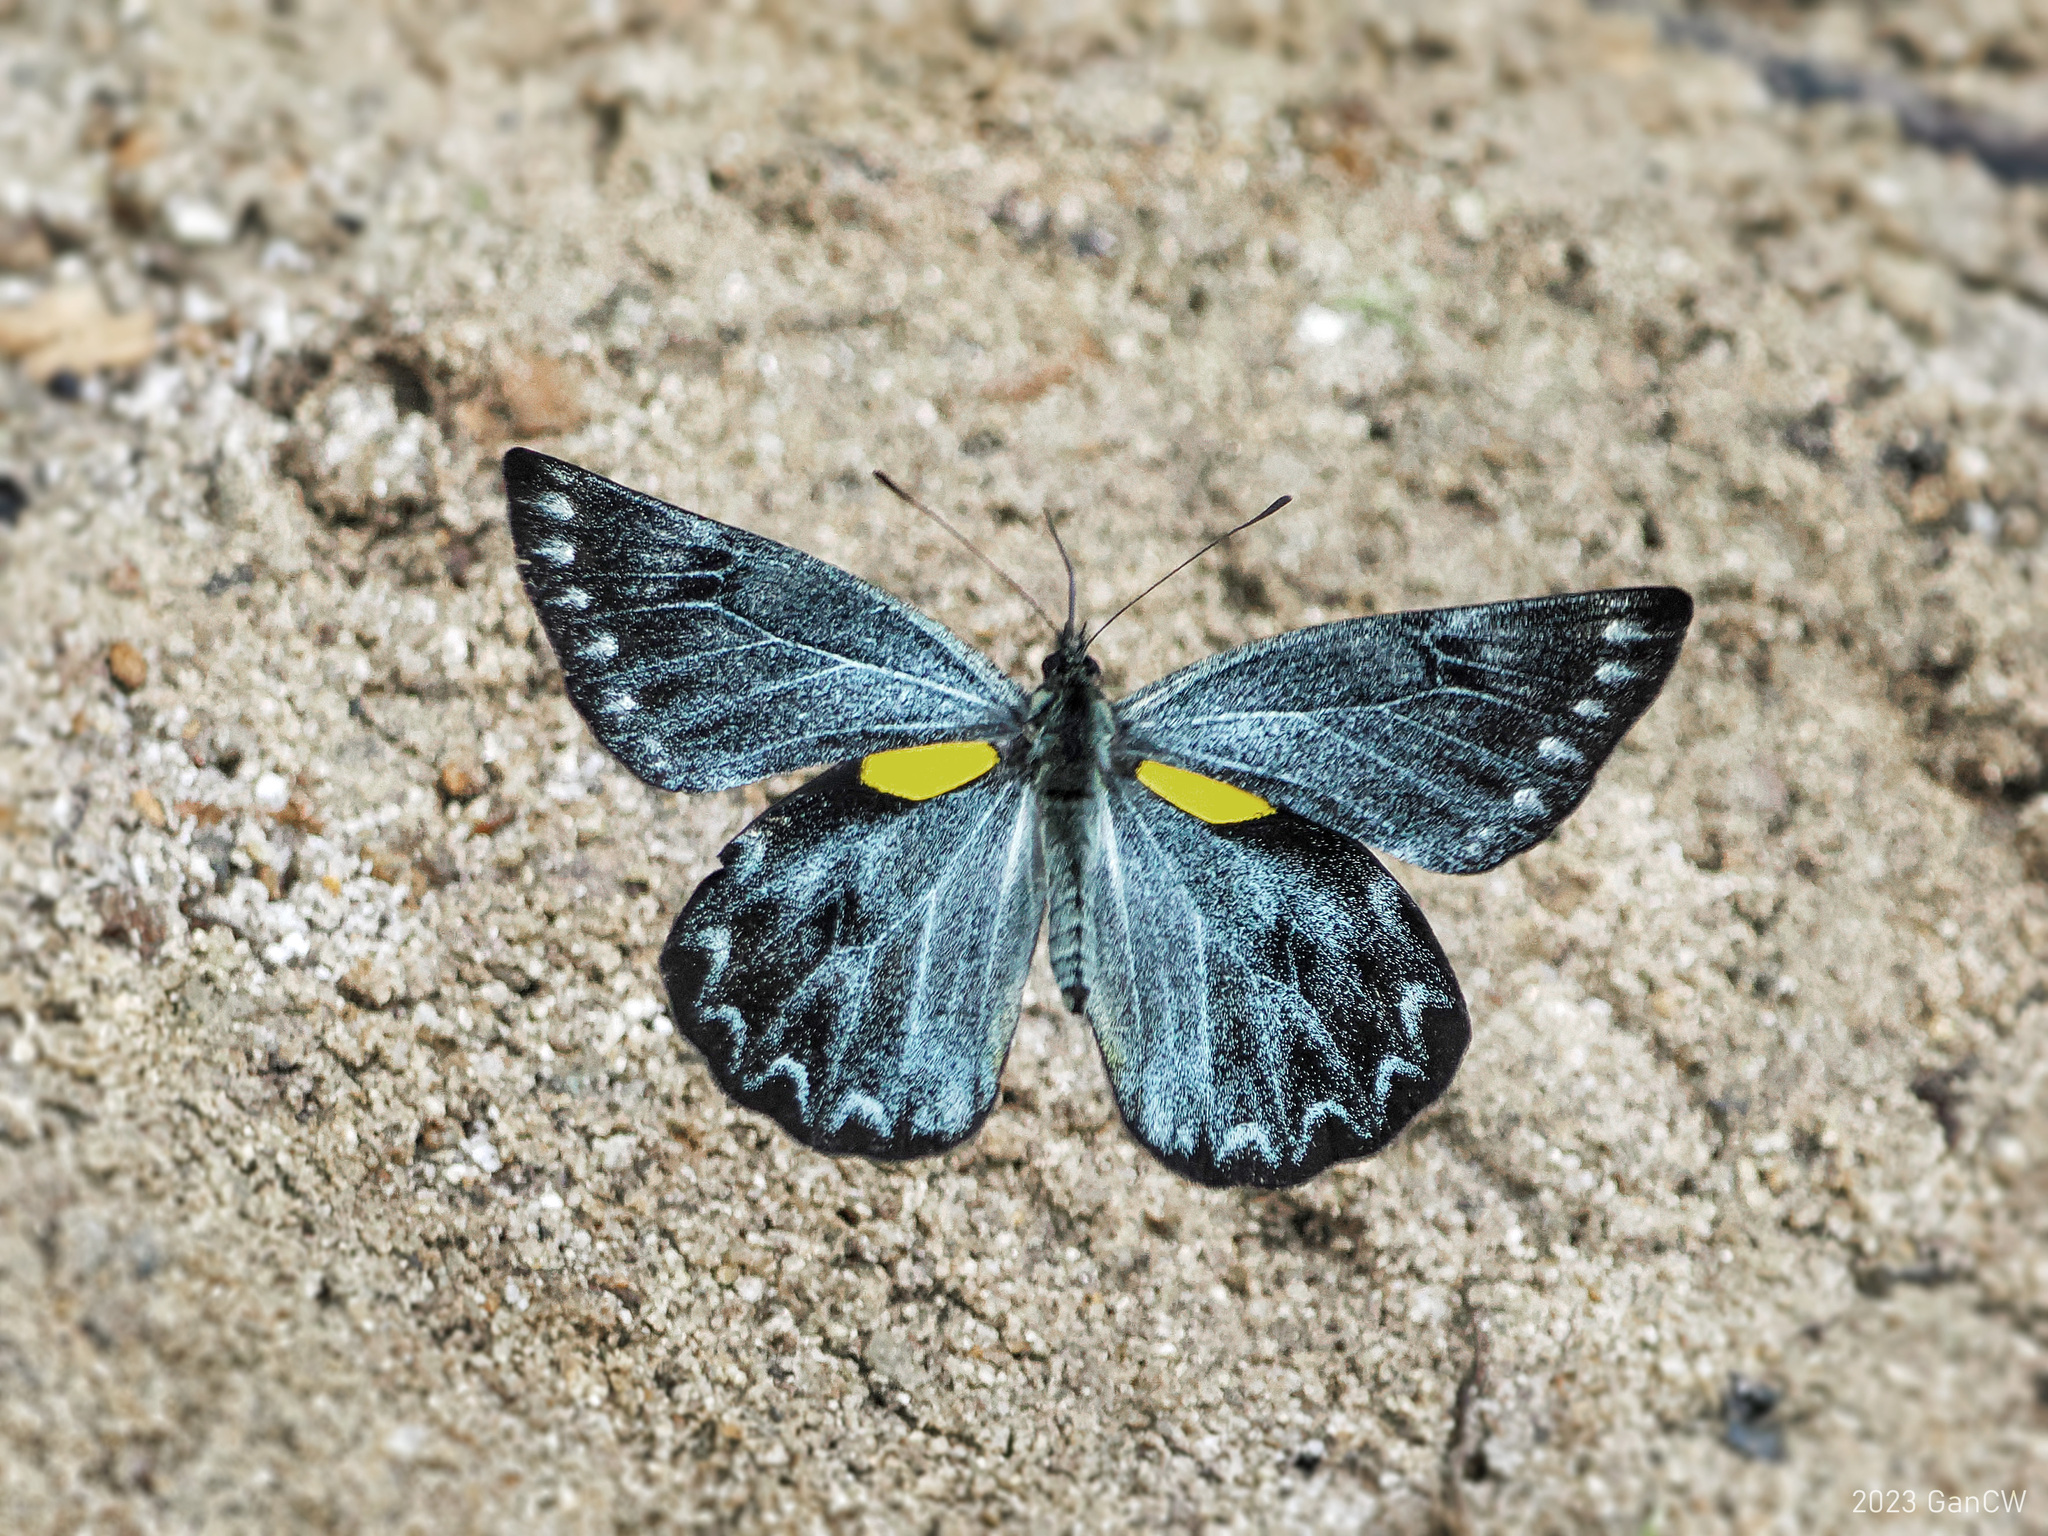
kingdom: Animalia
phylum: Arthropoda
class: Insecta
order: Lepidoptera
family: Pieridae
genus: Delias
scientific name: Delias surprisa
